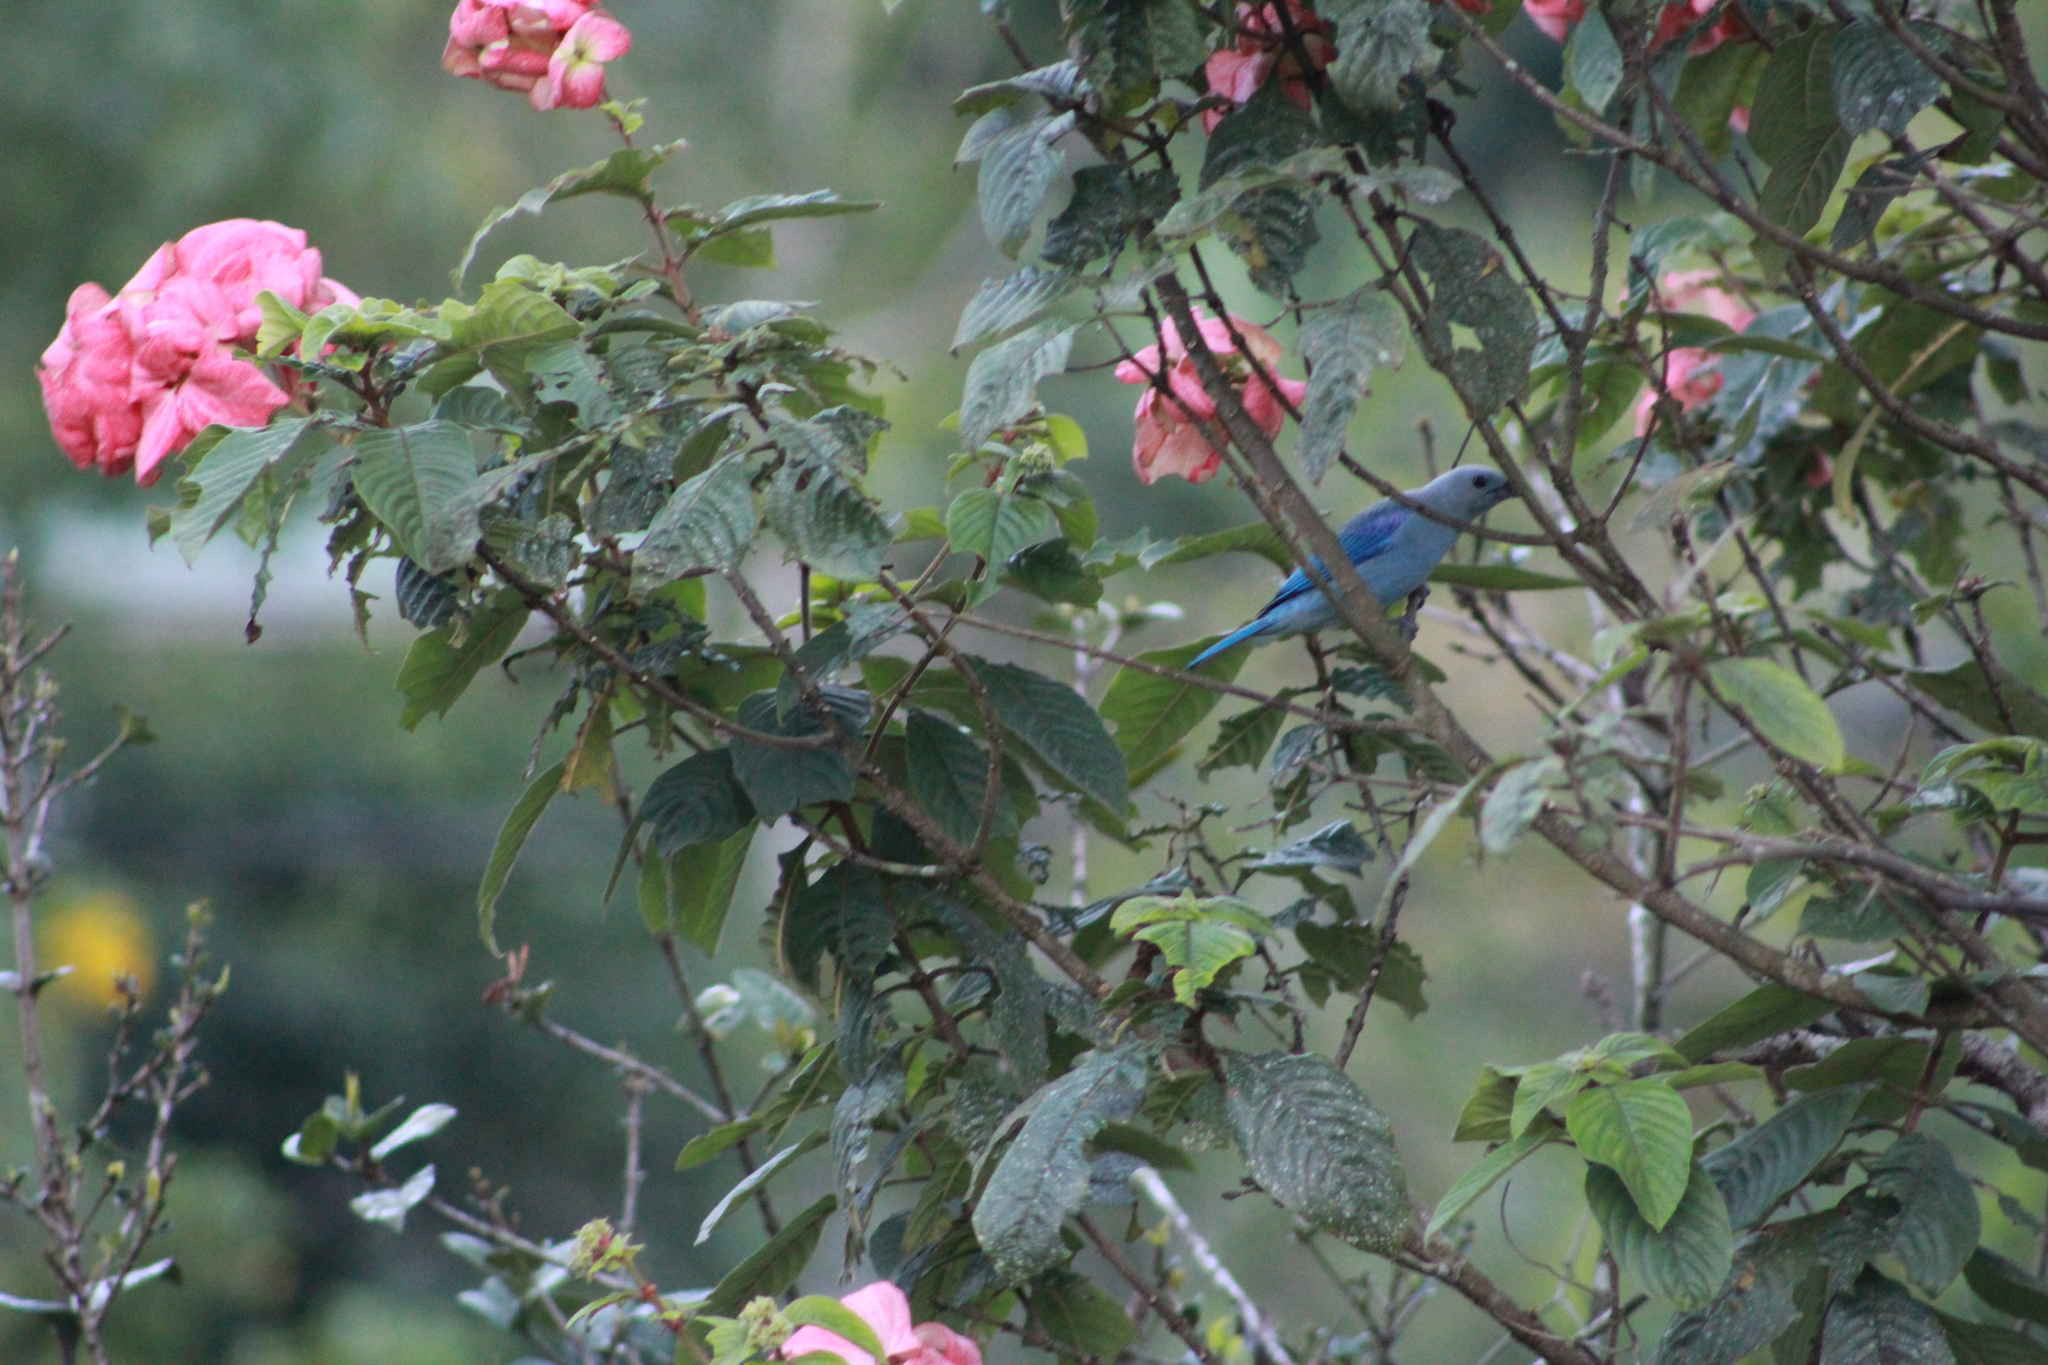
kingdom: Animalia
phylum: Chordata
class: Aves
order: Passeriformes
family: Thraupidae
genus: Thraupis
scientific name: Thraupis episcopus
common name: Blue-grey tanager
